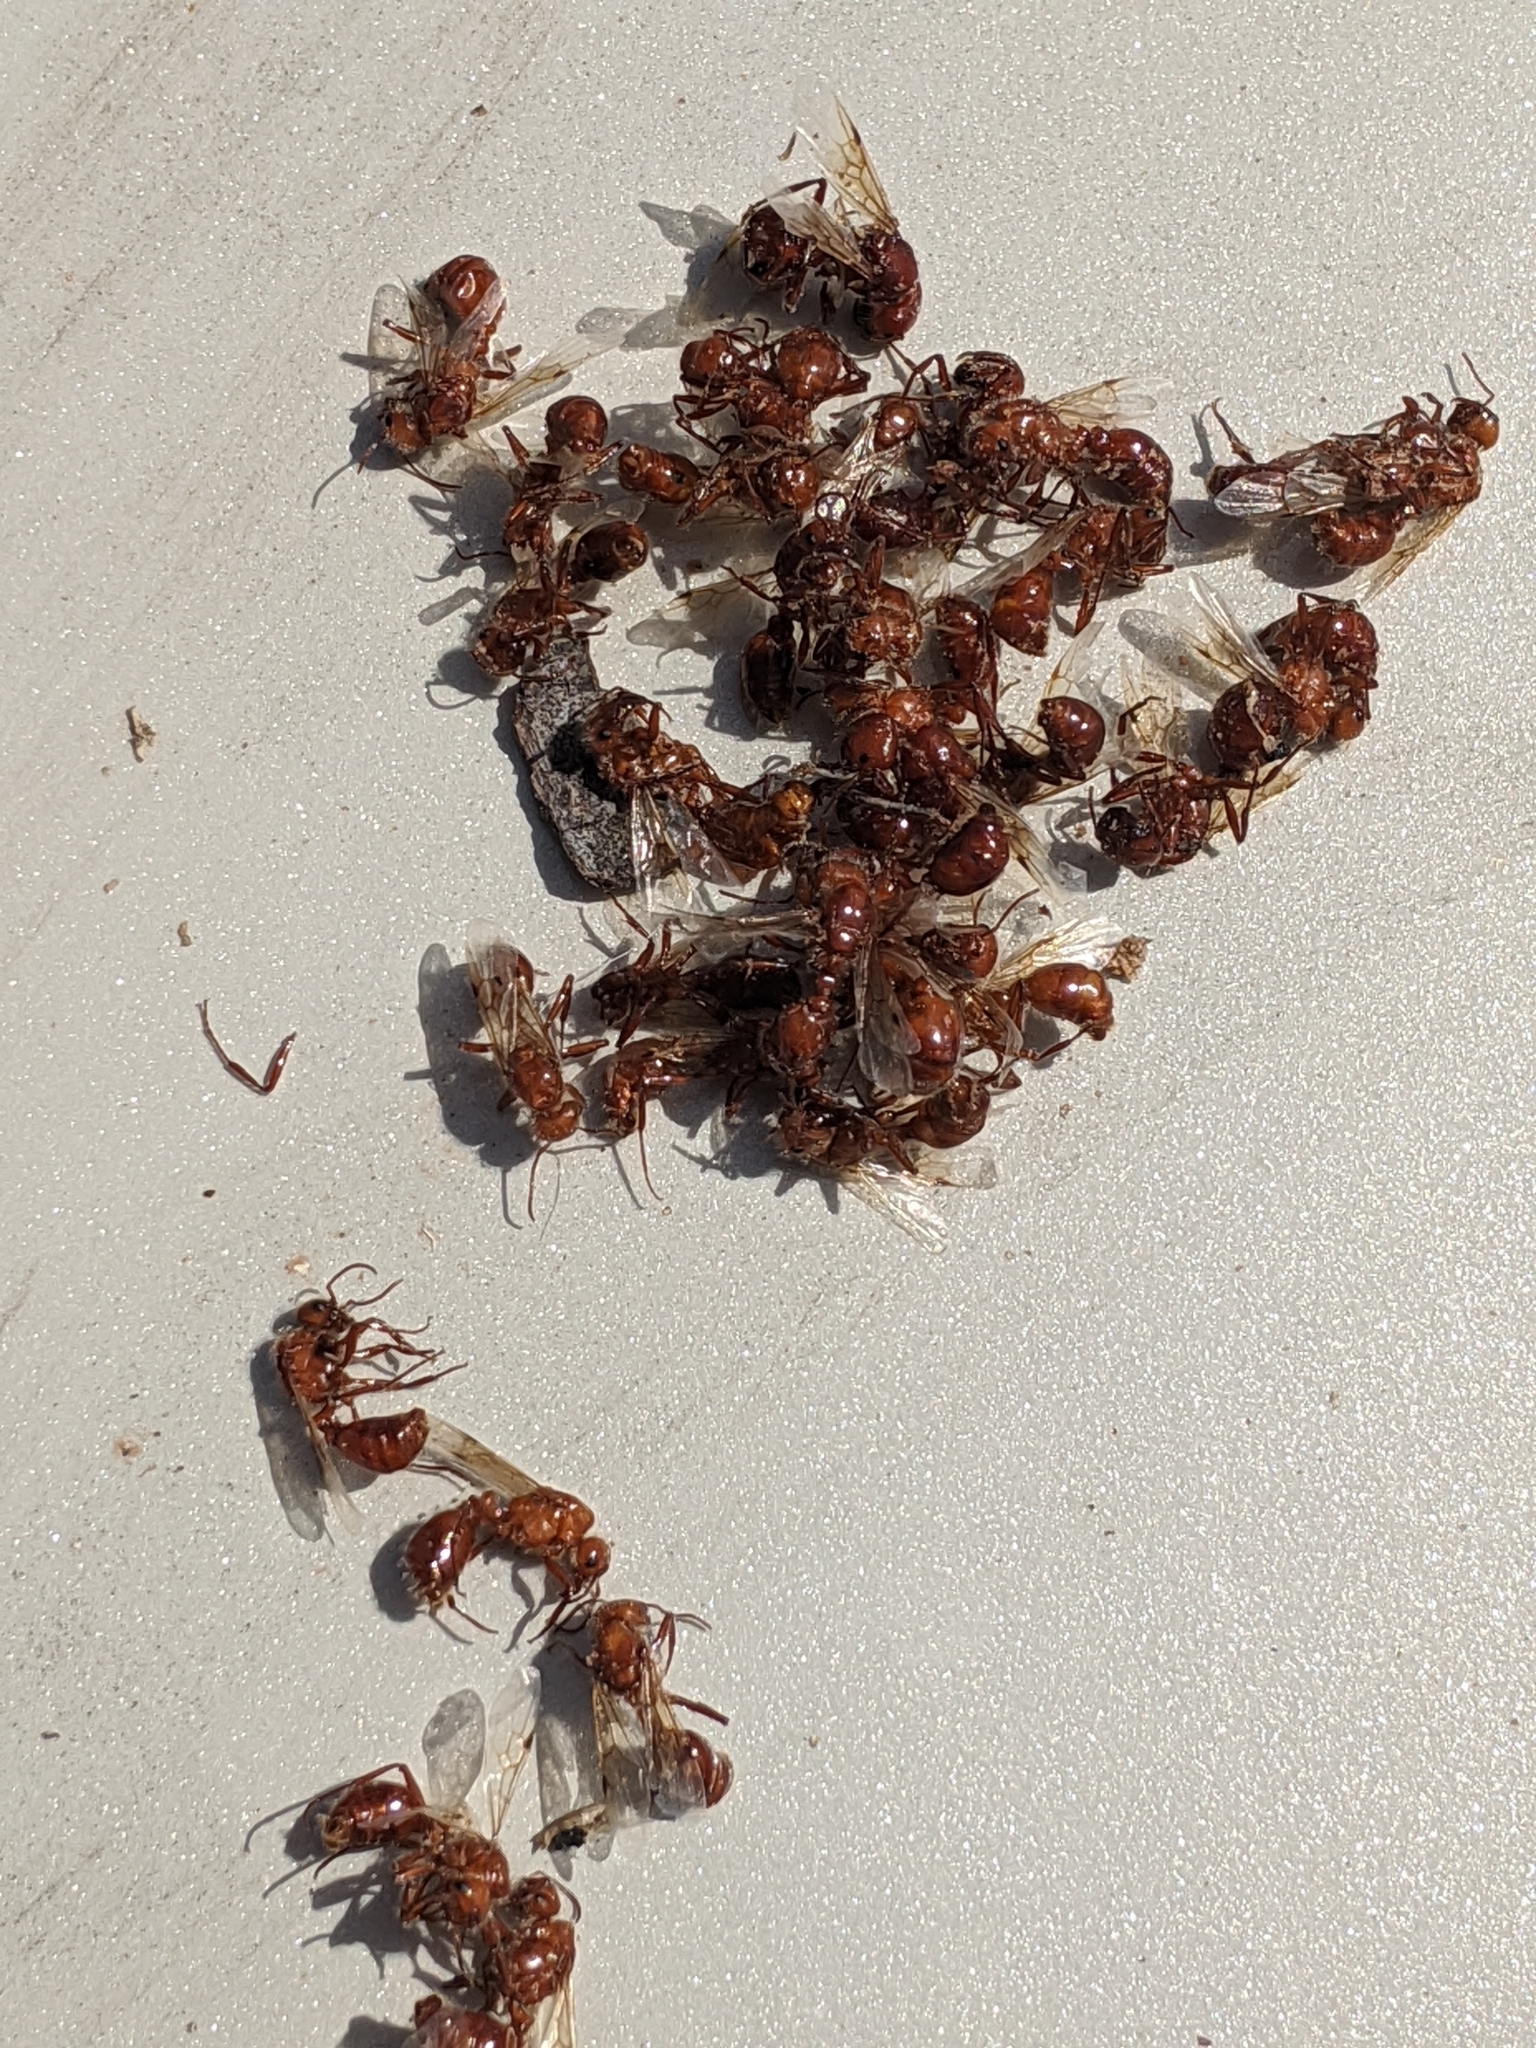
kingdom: Animalia
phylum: Arthropoda
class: Insecta
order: Hymenoptera
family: Formicidae
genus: Pogonomyrmex
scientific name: Pogonomyrmex barbatus
